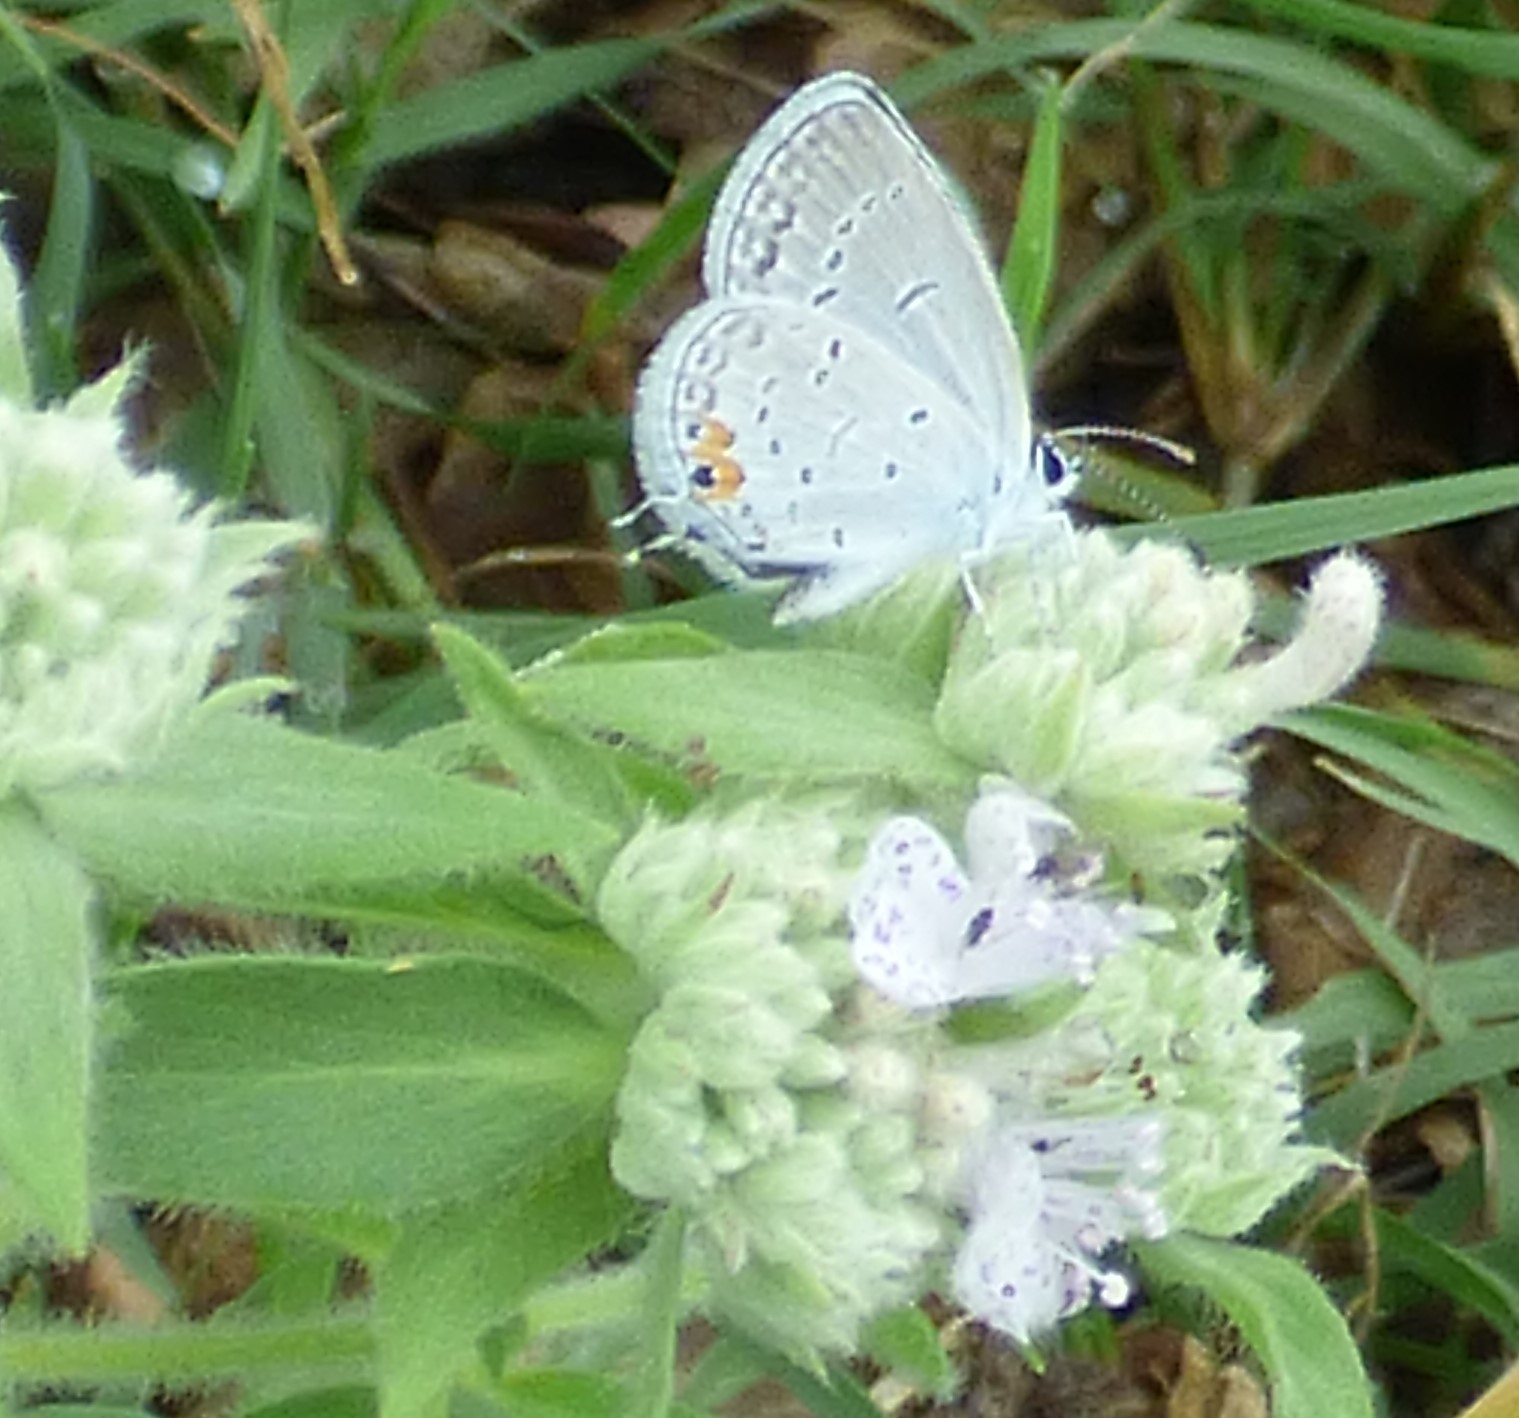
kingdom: Animalia
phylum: Arthropoda
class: Insecta
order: Lepidoptera
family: Lycaenidae
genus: Elkalyce
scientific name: Elkalyce comyntas
